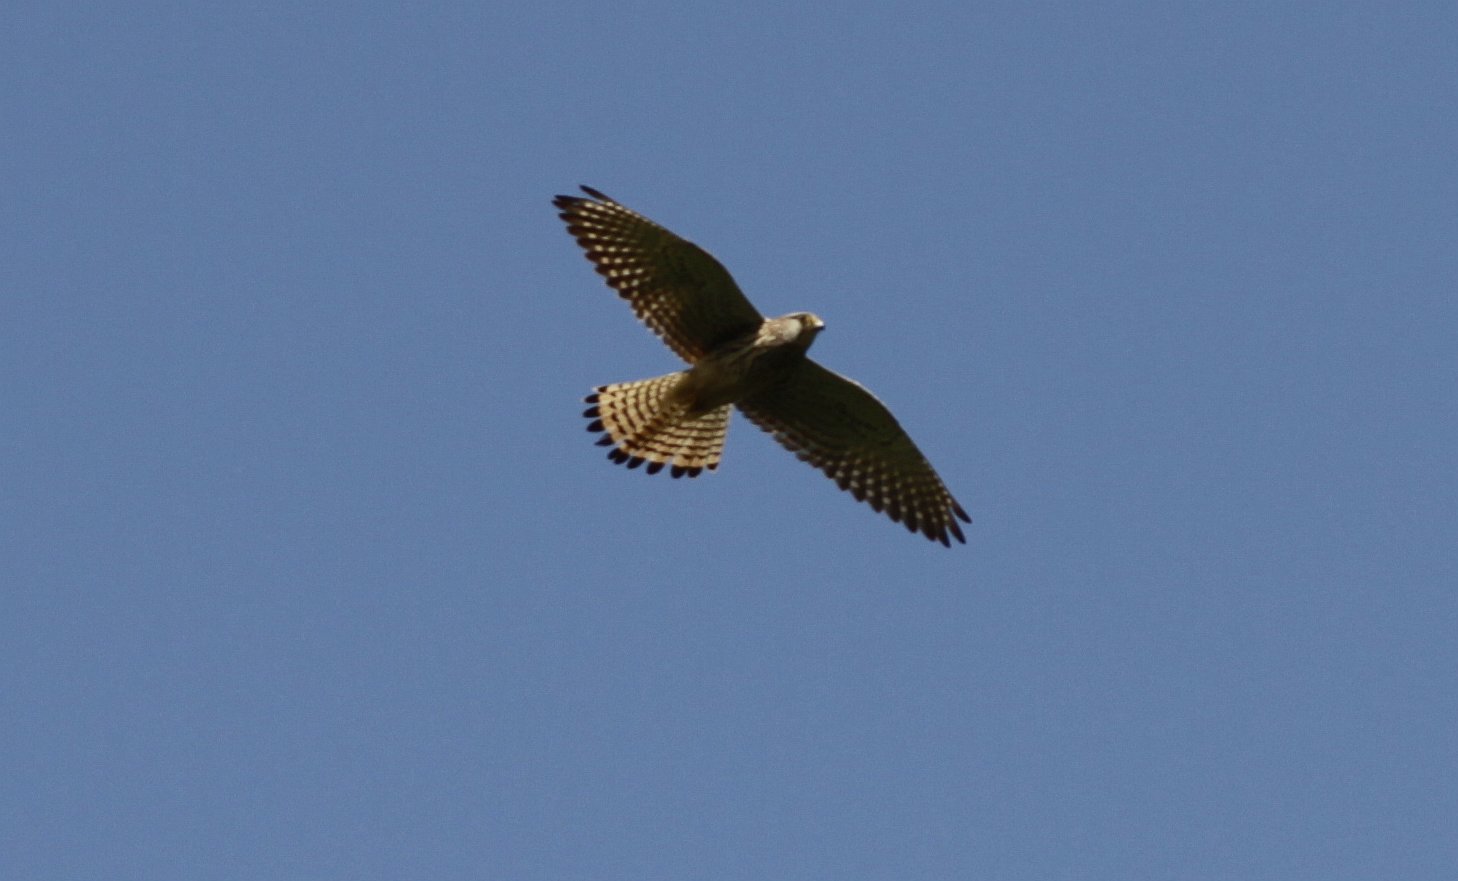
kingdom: Animalia
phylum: Chordata
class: Aves
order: Falconiformes
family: Falconidae
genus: Falco
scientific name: Falco tinnunculus
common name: Common kestrel
